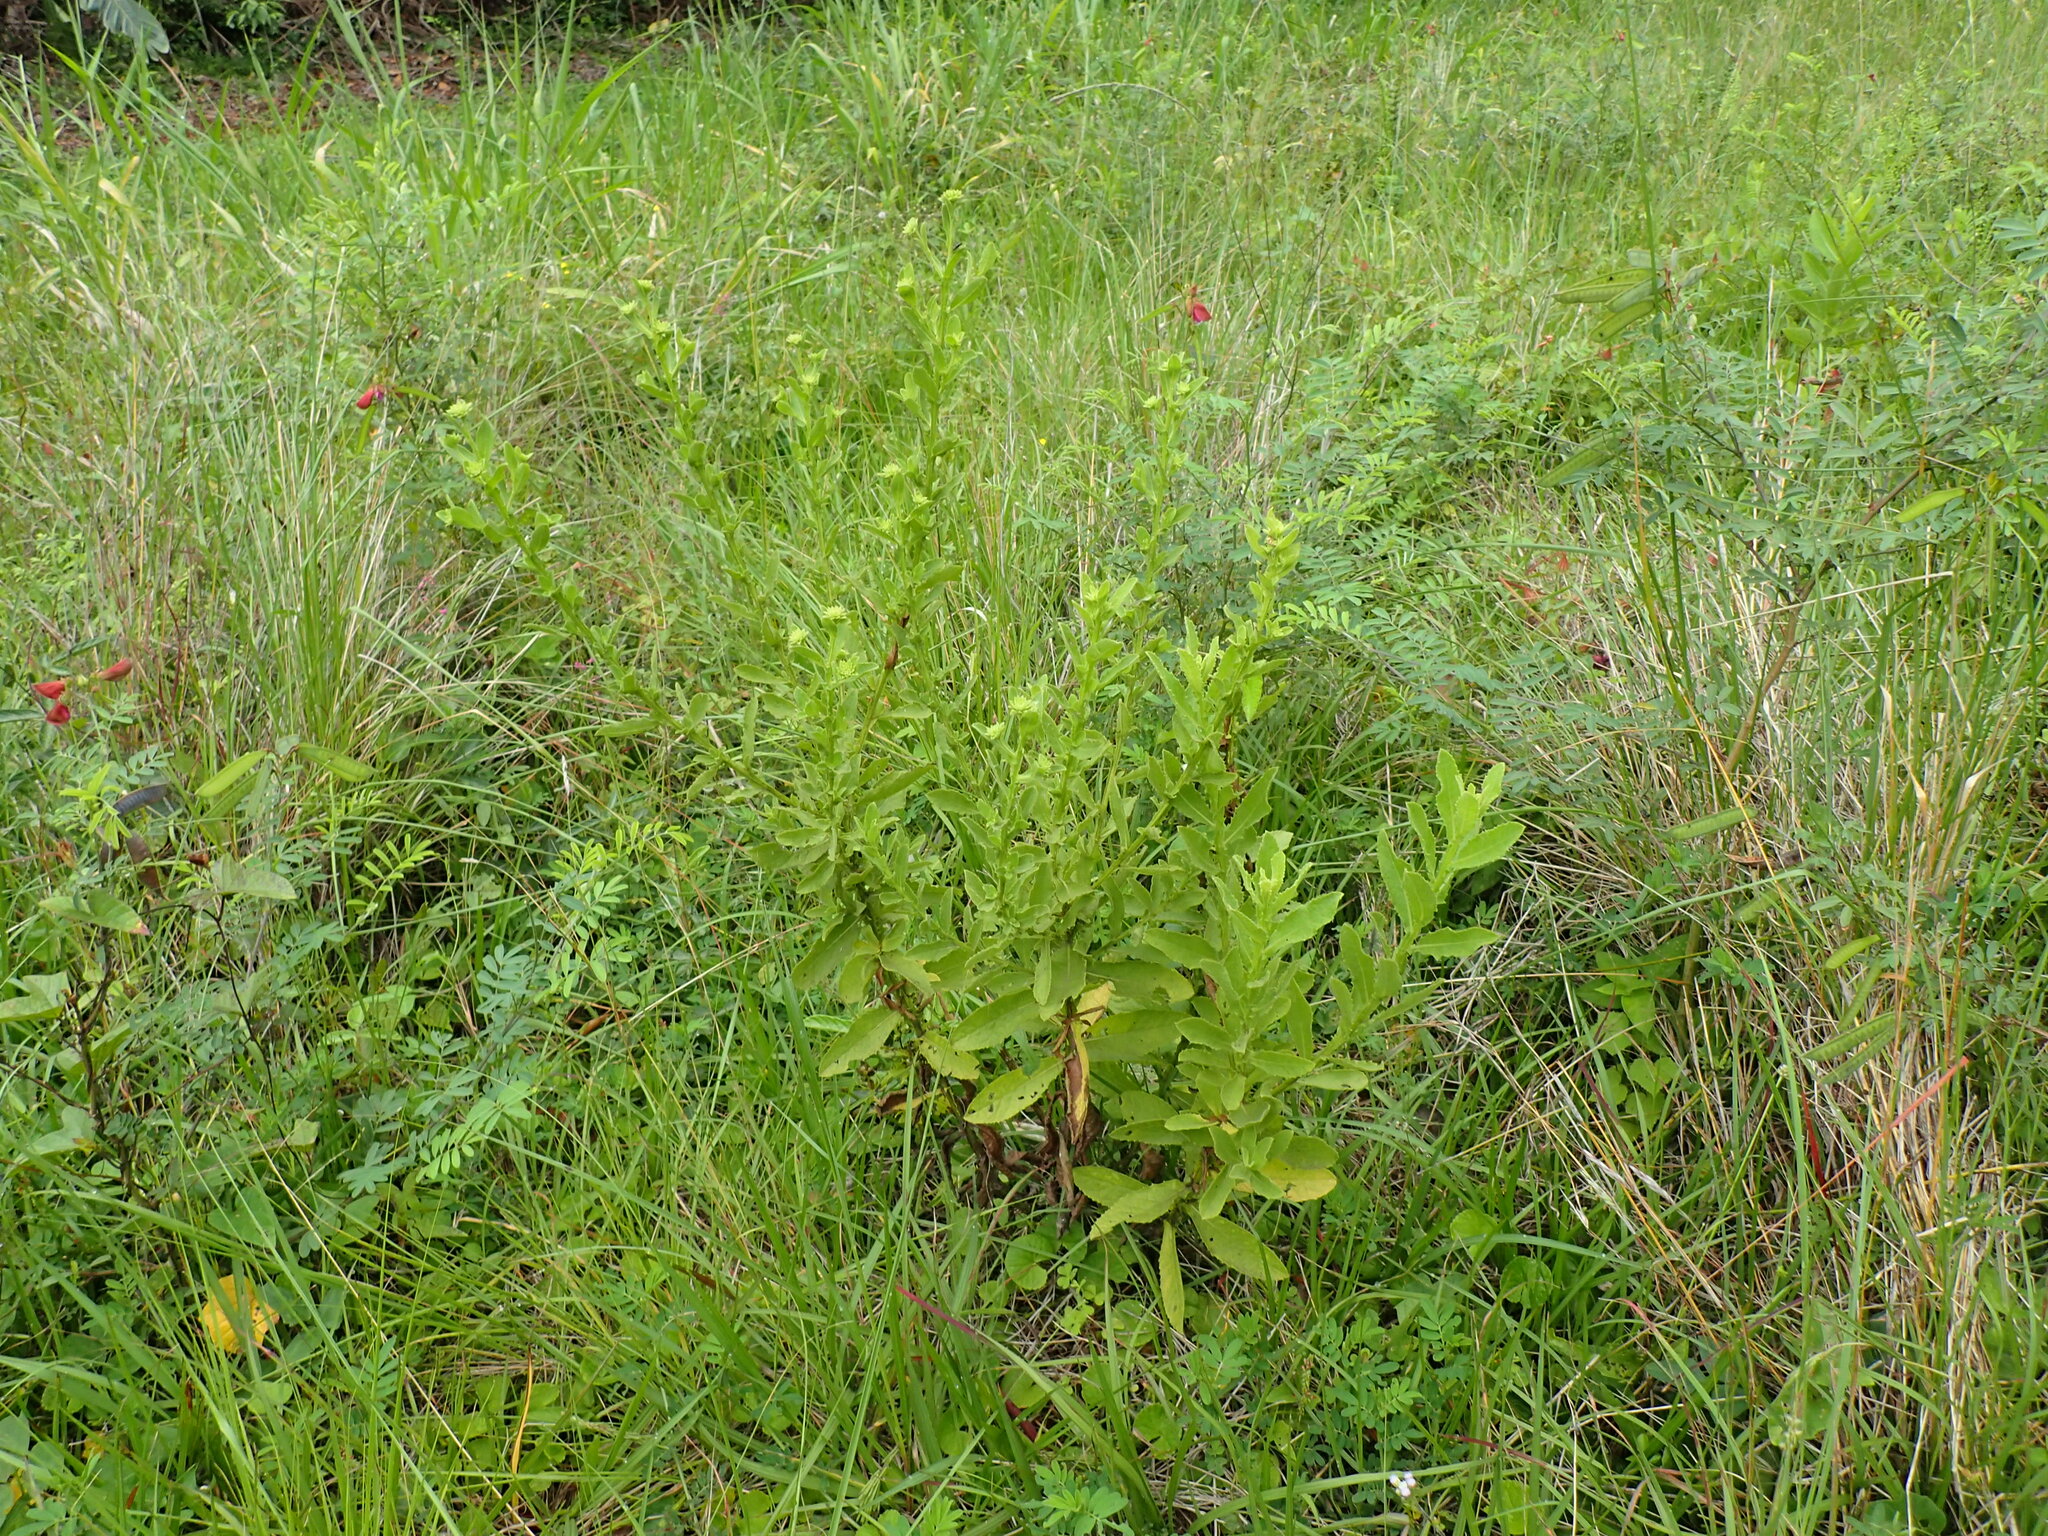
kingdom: Plantae
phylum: Tracheophyta
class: Magnoliopsida
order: Asterales
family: Asteraceae
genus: Blumea
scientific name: Blumea axillaris
